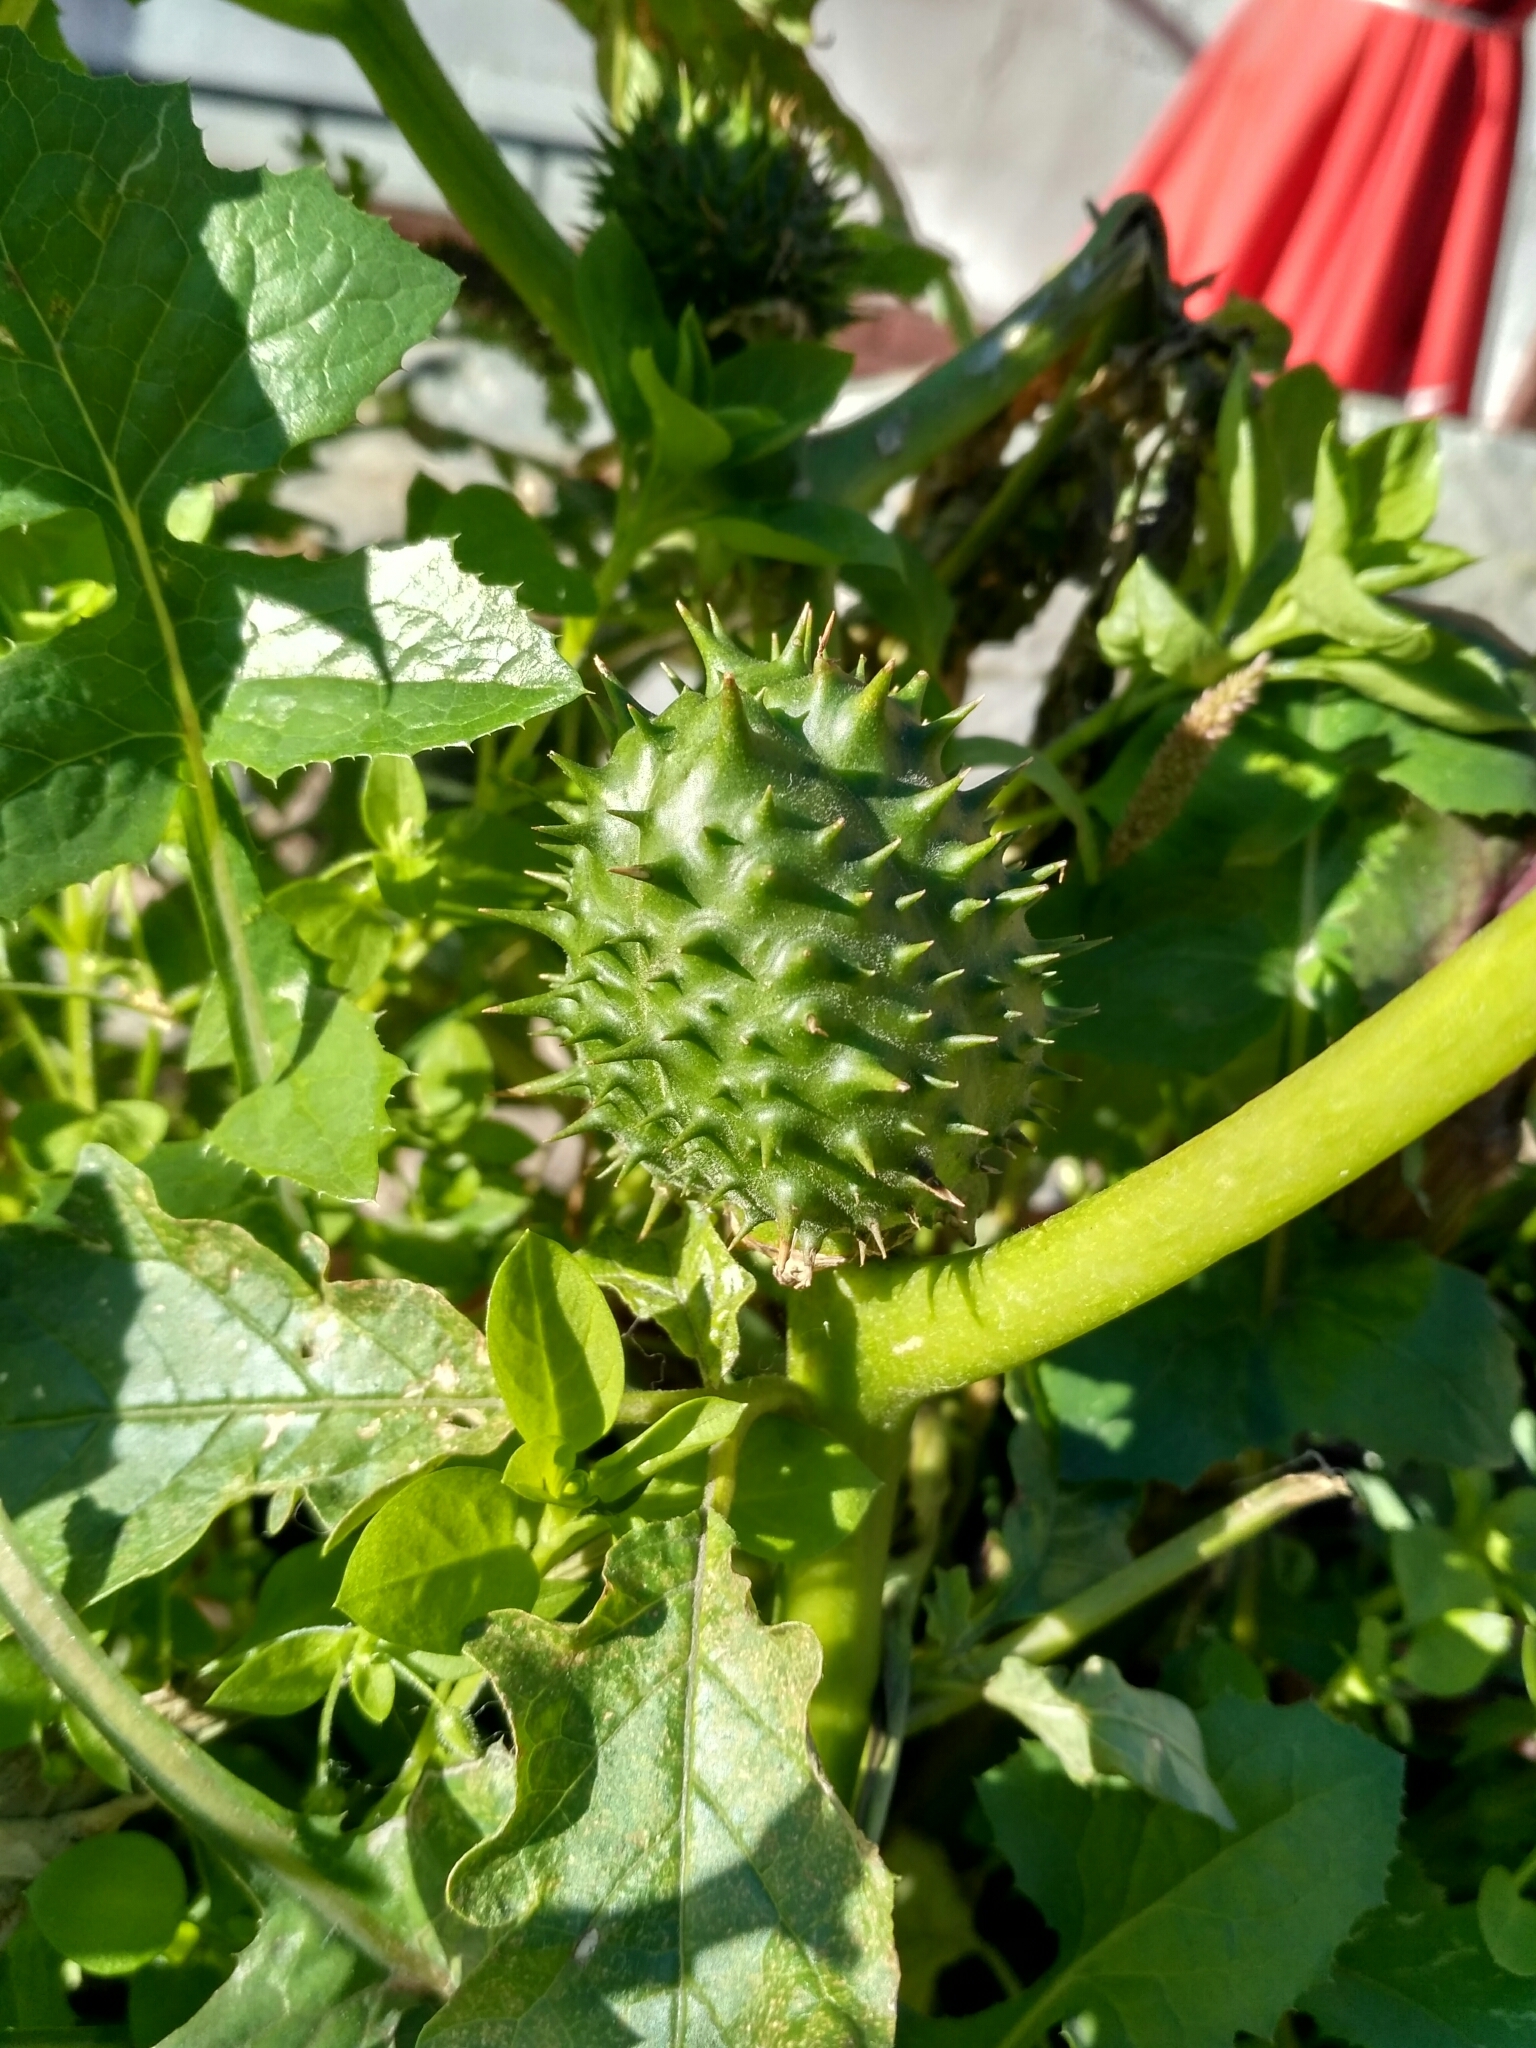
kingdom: Plantae
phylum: Tracheophyta
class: Magnoliopsida
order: Solanales
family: Solanaceae
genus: Datura
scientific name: Datura stramonium
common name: Thorn-apple
